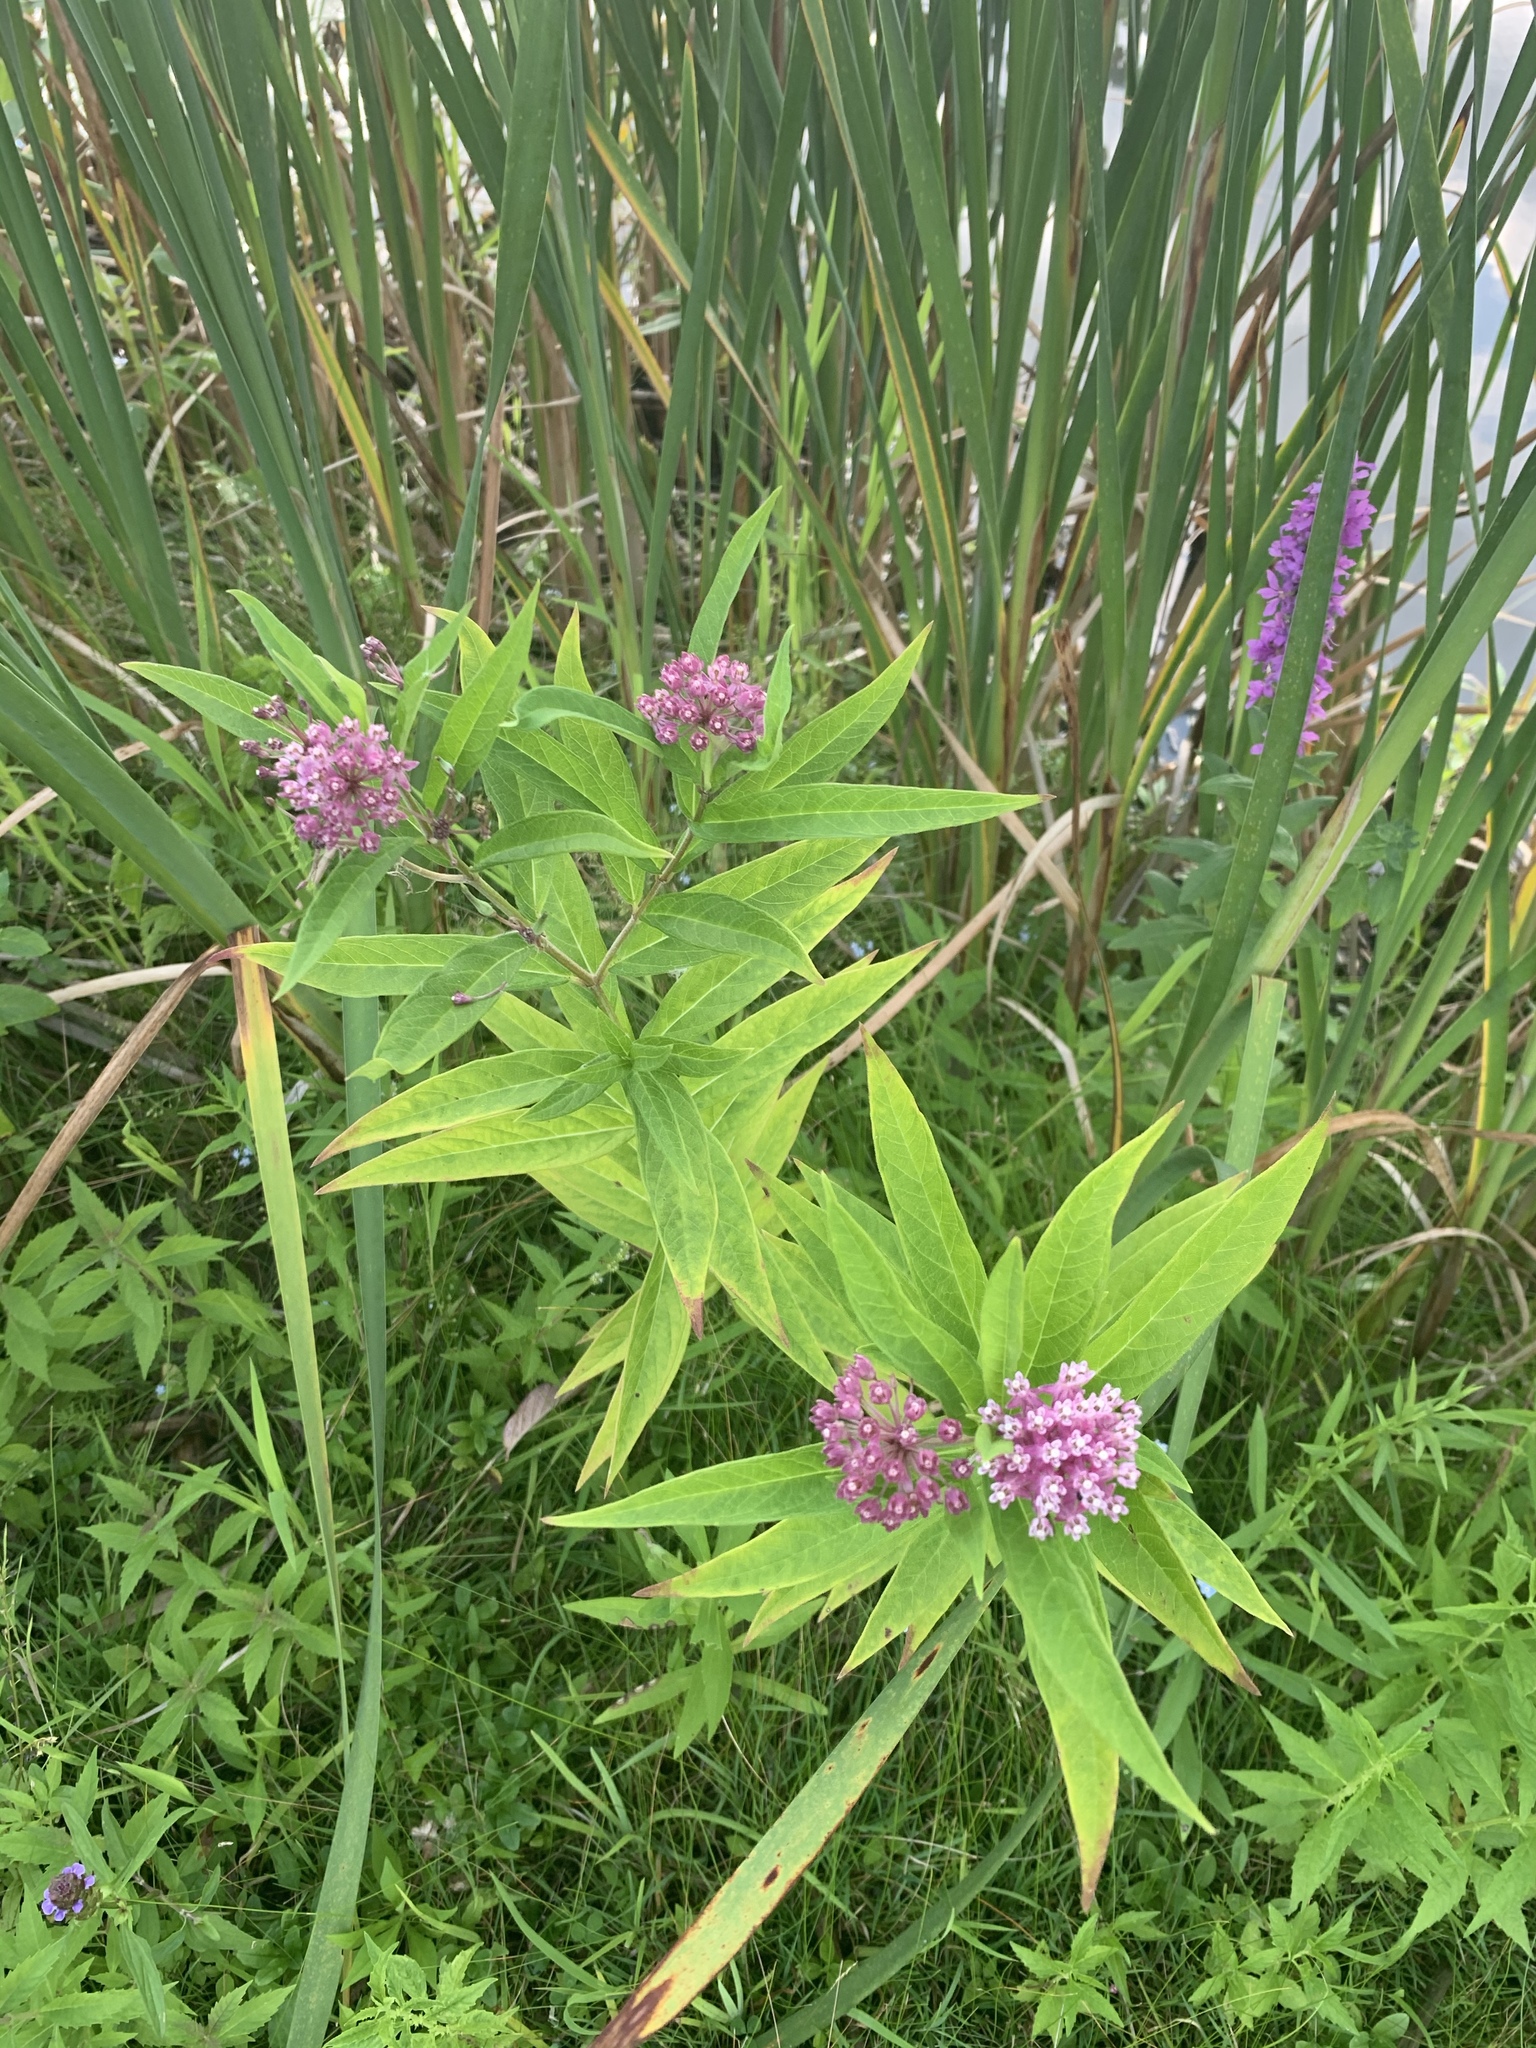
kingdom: Plantae
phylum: Tracheophyta
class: Magnoliopsida
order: Gentianales
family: Apocynaceae
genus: Asclepias
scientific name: Asclepias incarnata
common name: Swamp milkweed
